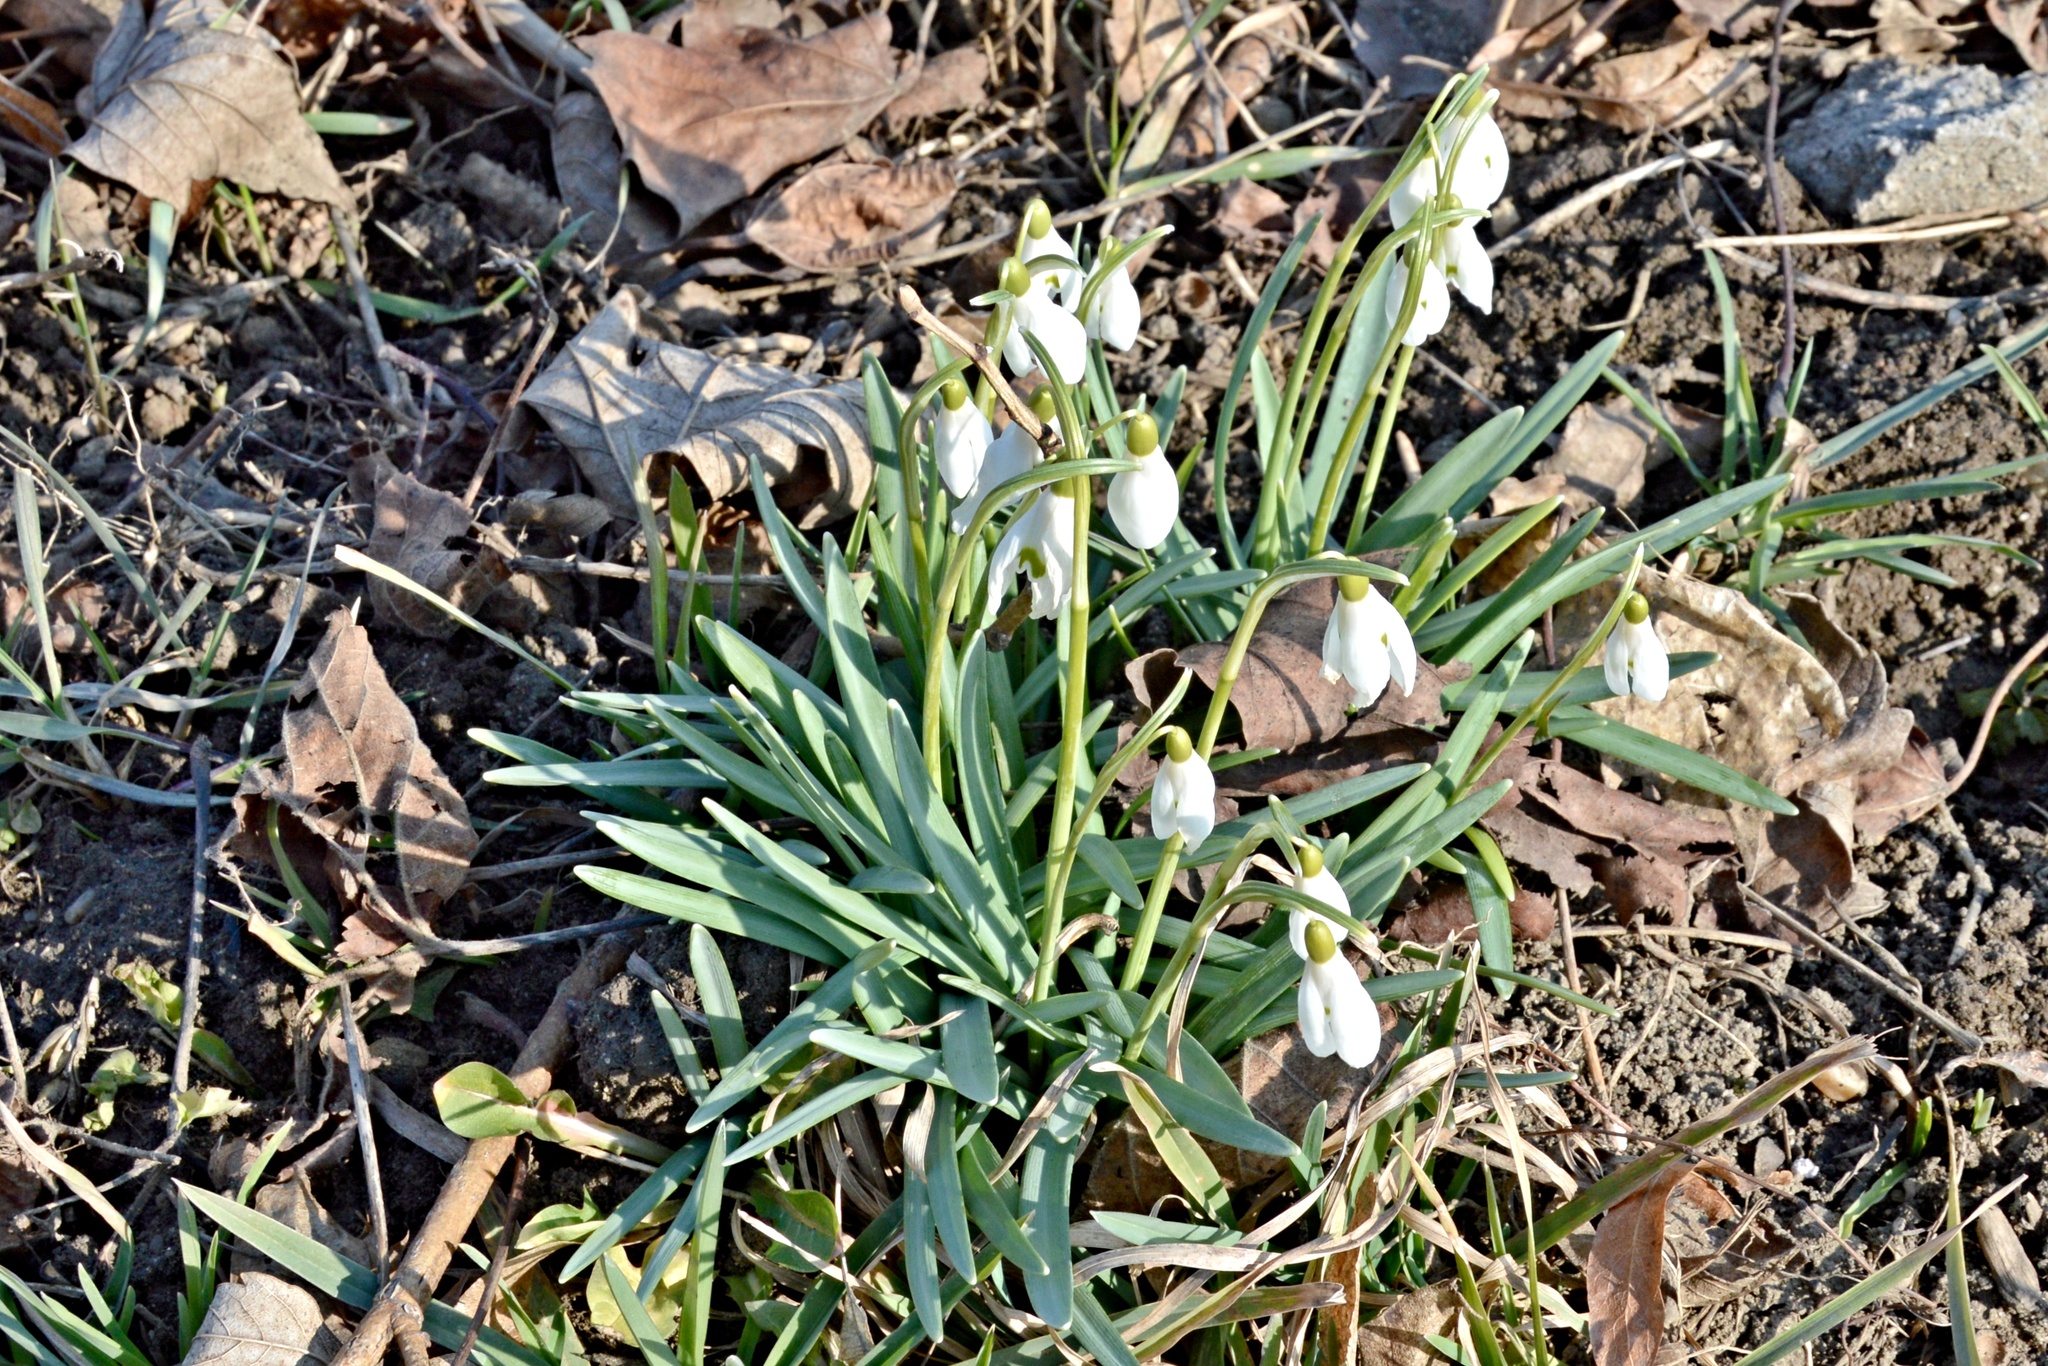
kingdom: Plantae
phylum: Tracheophyta
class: Liliopsida
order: Asparagales
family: Amaryllidaceae
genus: Galanthus
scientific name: Galanthus nivalis
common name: Snowdrop
